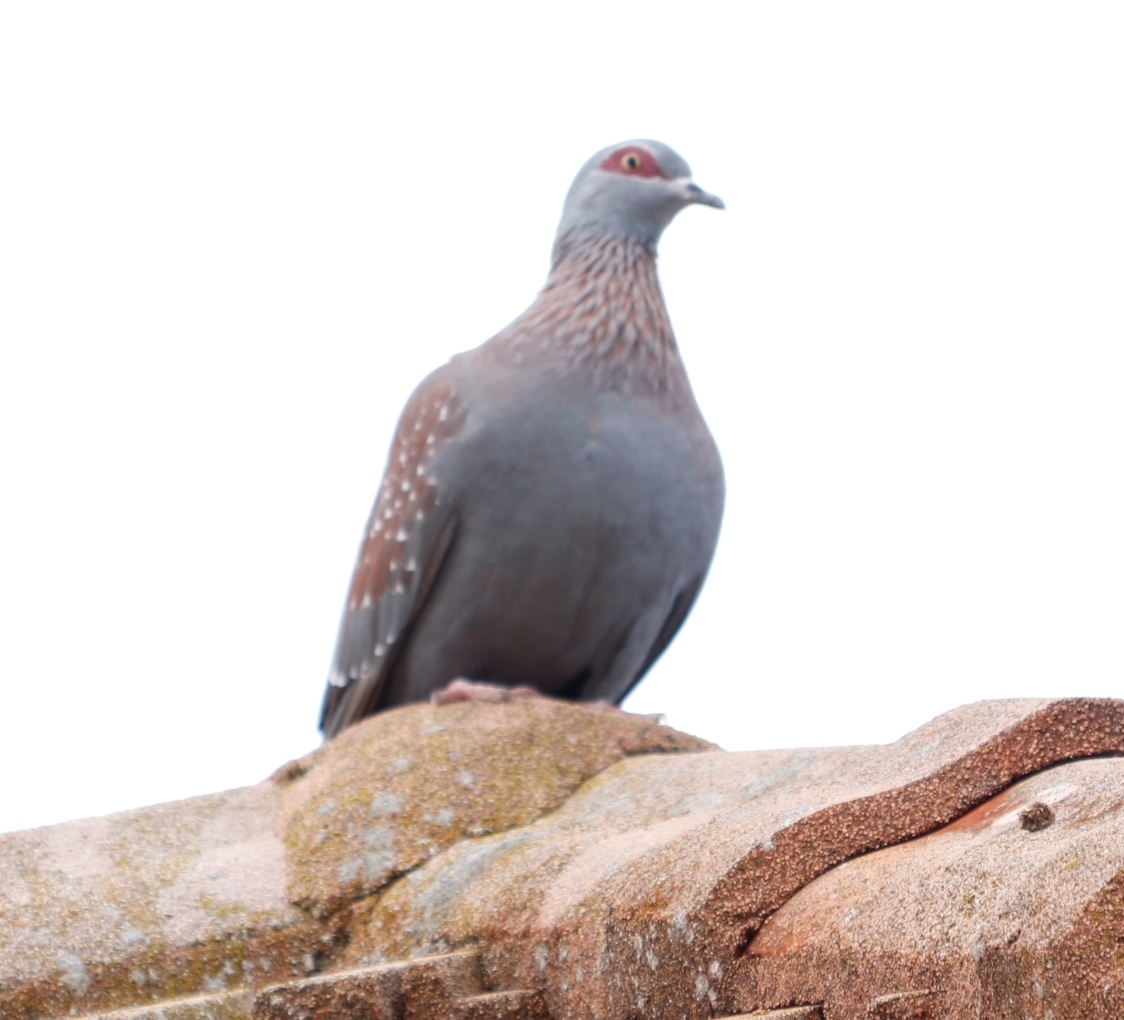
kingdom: Animalia
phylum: Chordata
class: Aves
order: Columbiformes
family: Columbidae
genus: Columba
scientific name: Columba guinea
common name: Speckled pigeon
